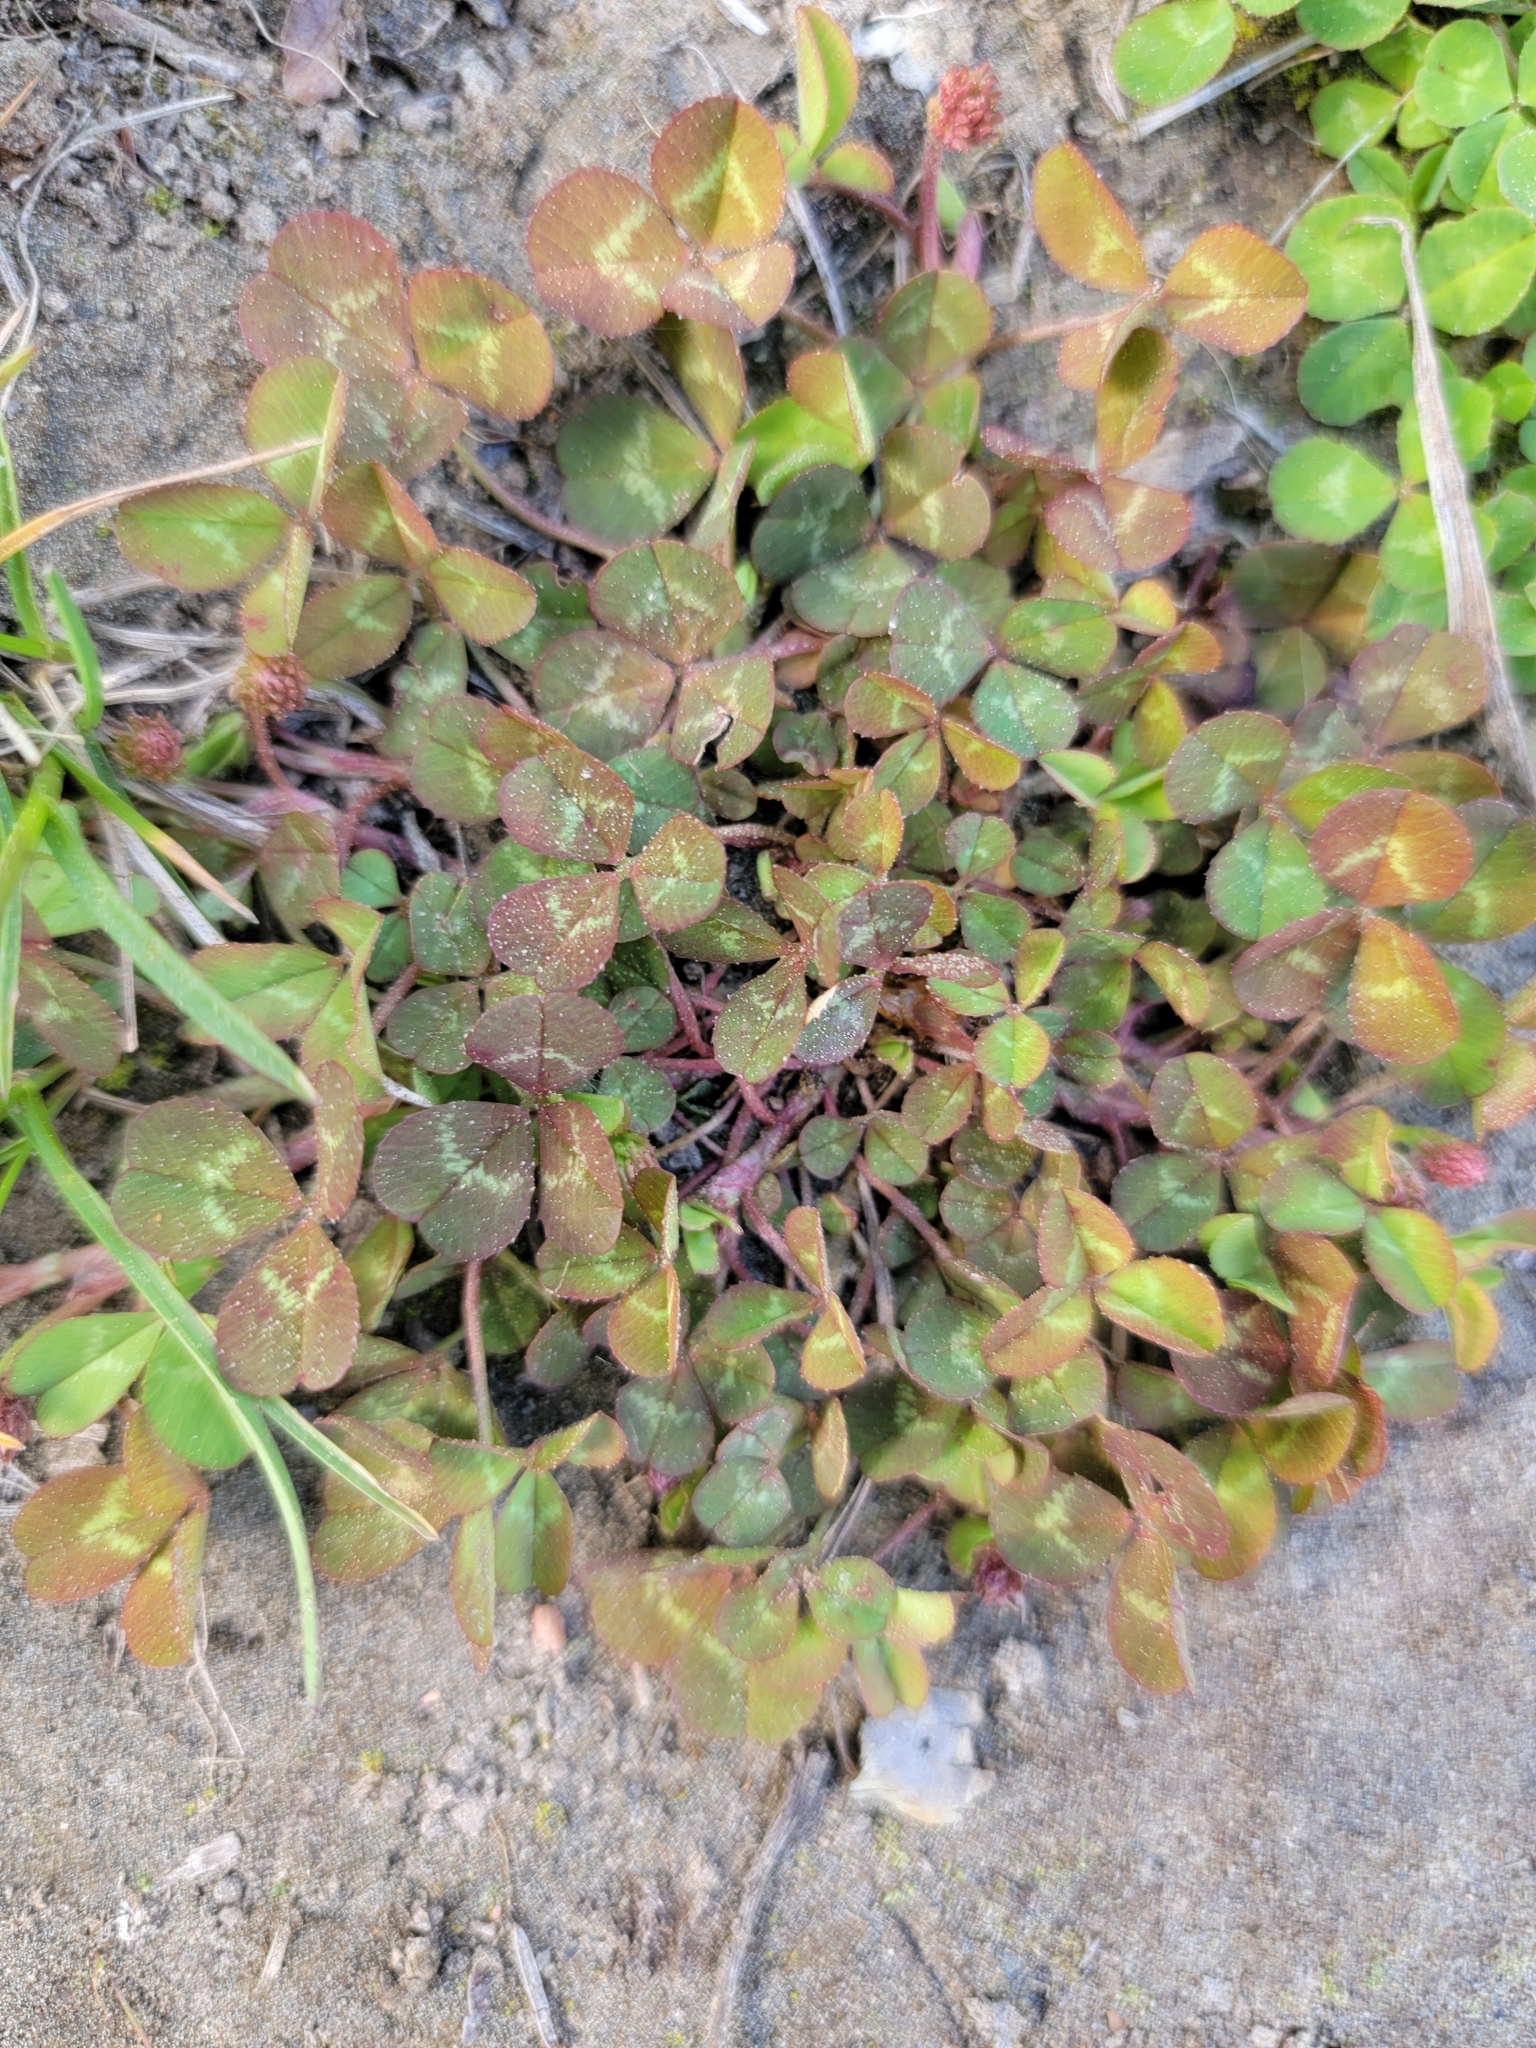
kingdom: Plantae
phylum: Tracheophyta
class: Magnoliopsida
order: Fabales
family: Fabaceae
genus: Trifolium
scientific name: Trifolium repens
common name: White clover
